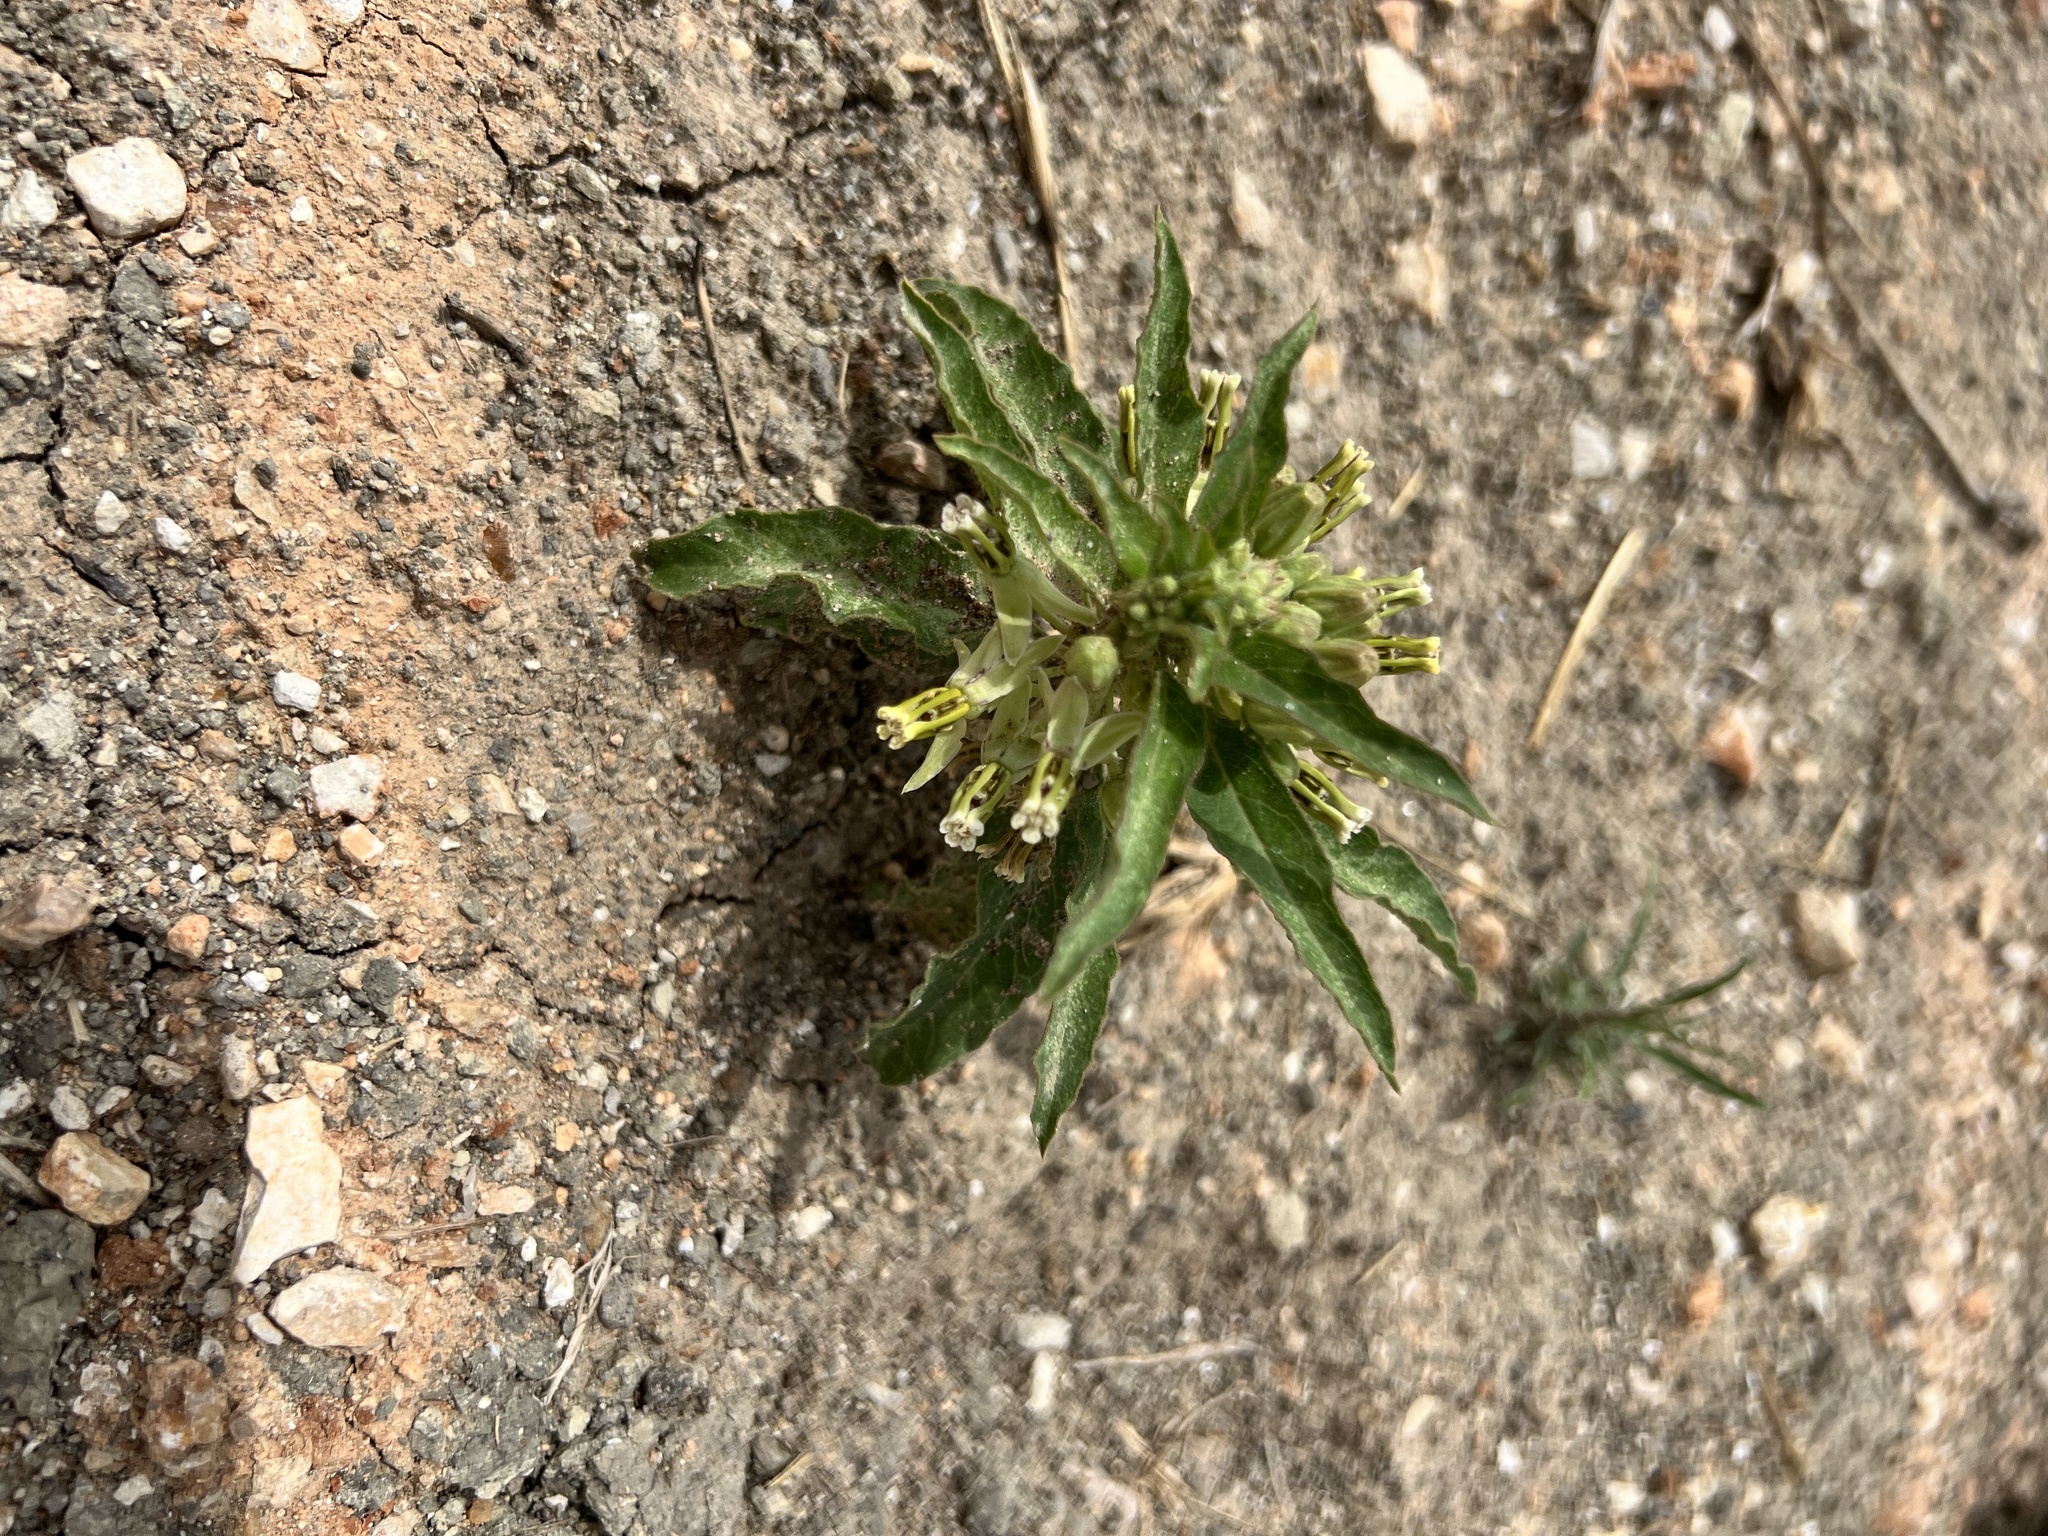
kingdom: Plantae
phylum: Tracheophyta
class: Magnoliopsida
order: Gentianales
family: Apocynaceae
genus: Asclepias
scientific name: Asclepias oenotheroides
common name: Zizotes milkweed
